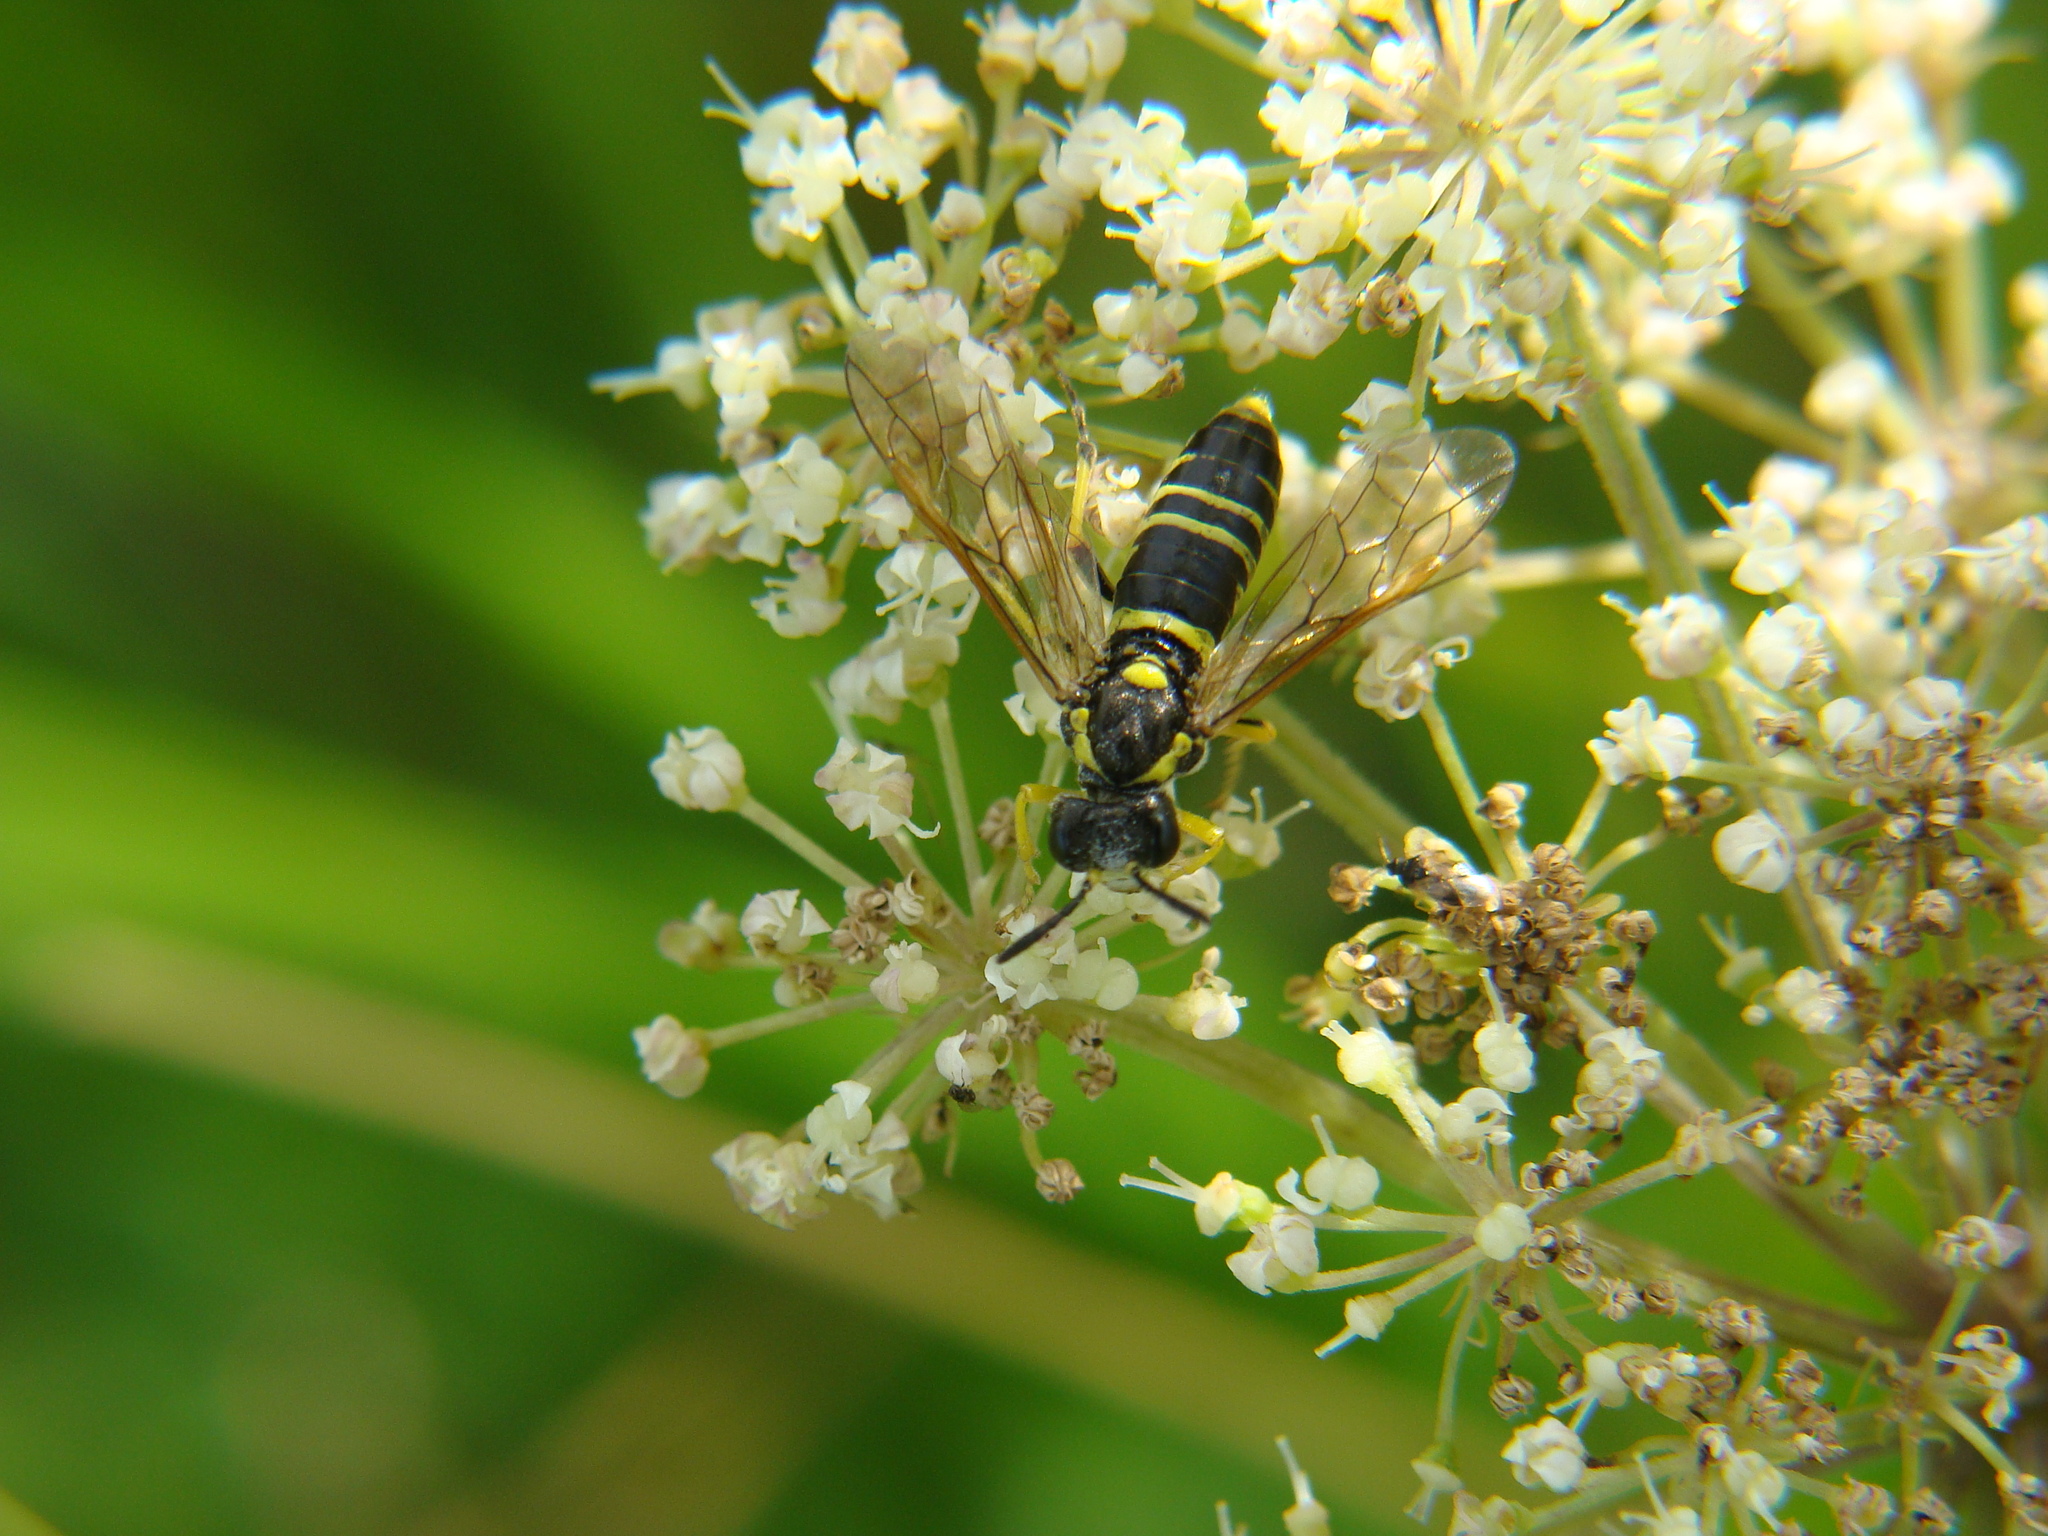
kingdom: Animalia
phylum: Arthropoda
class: Insecta
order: Hymenoptera
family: Tenthredinidae
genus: Tenthredo
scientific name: Tenthredo notha
